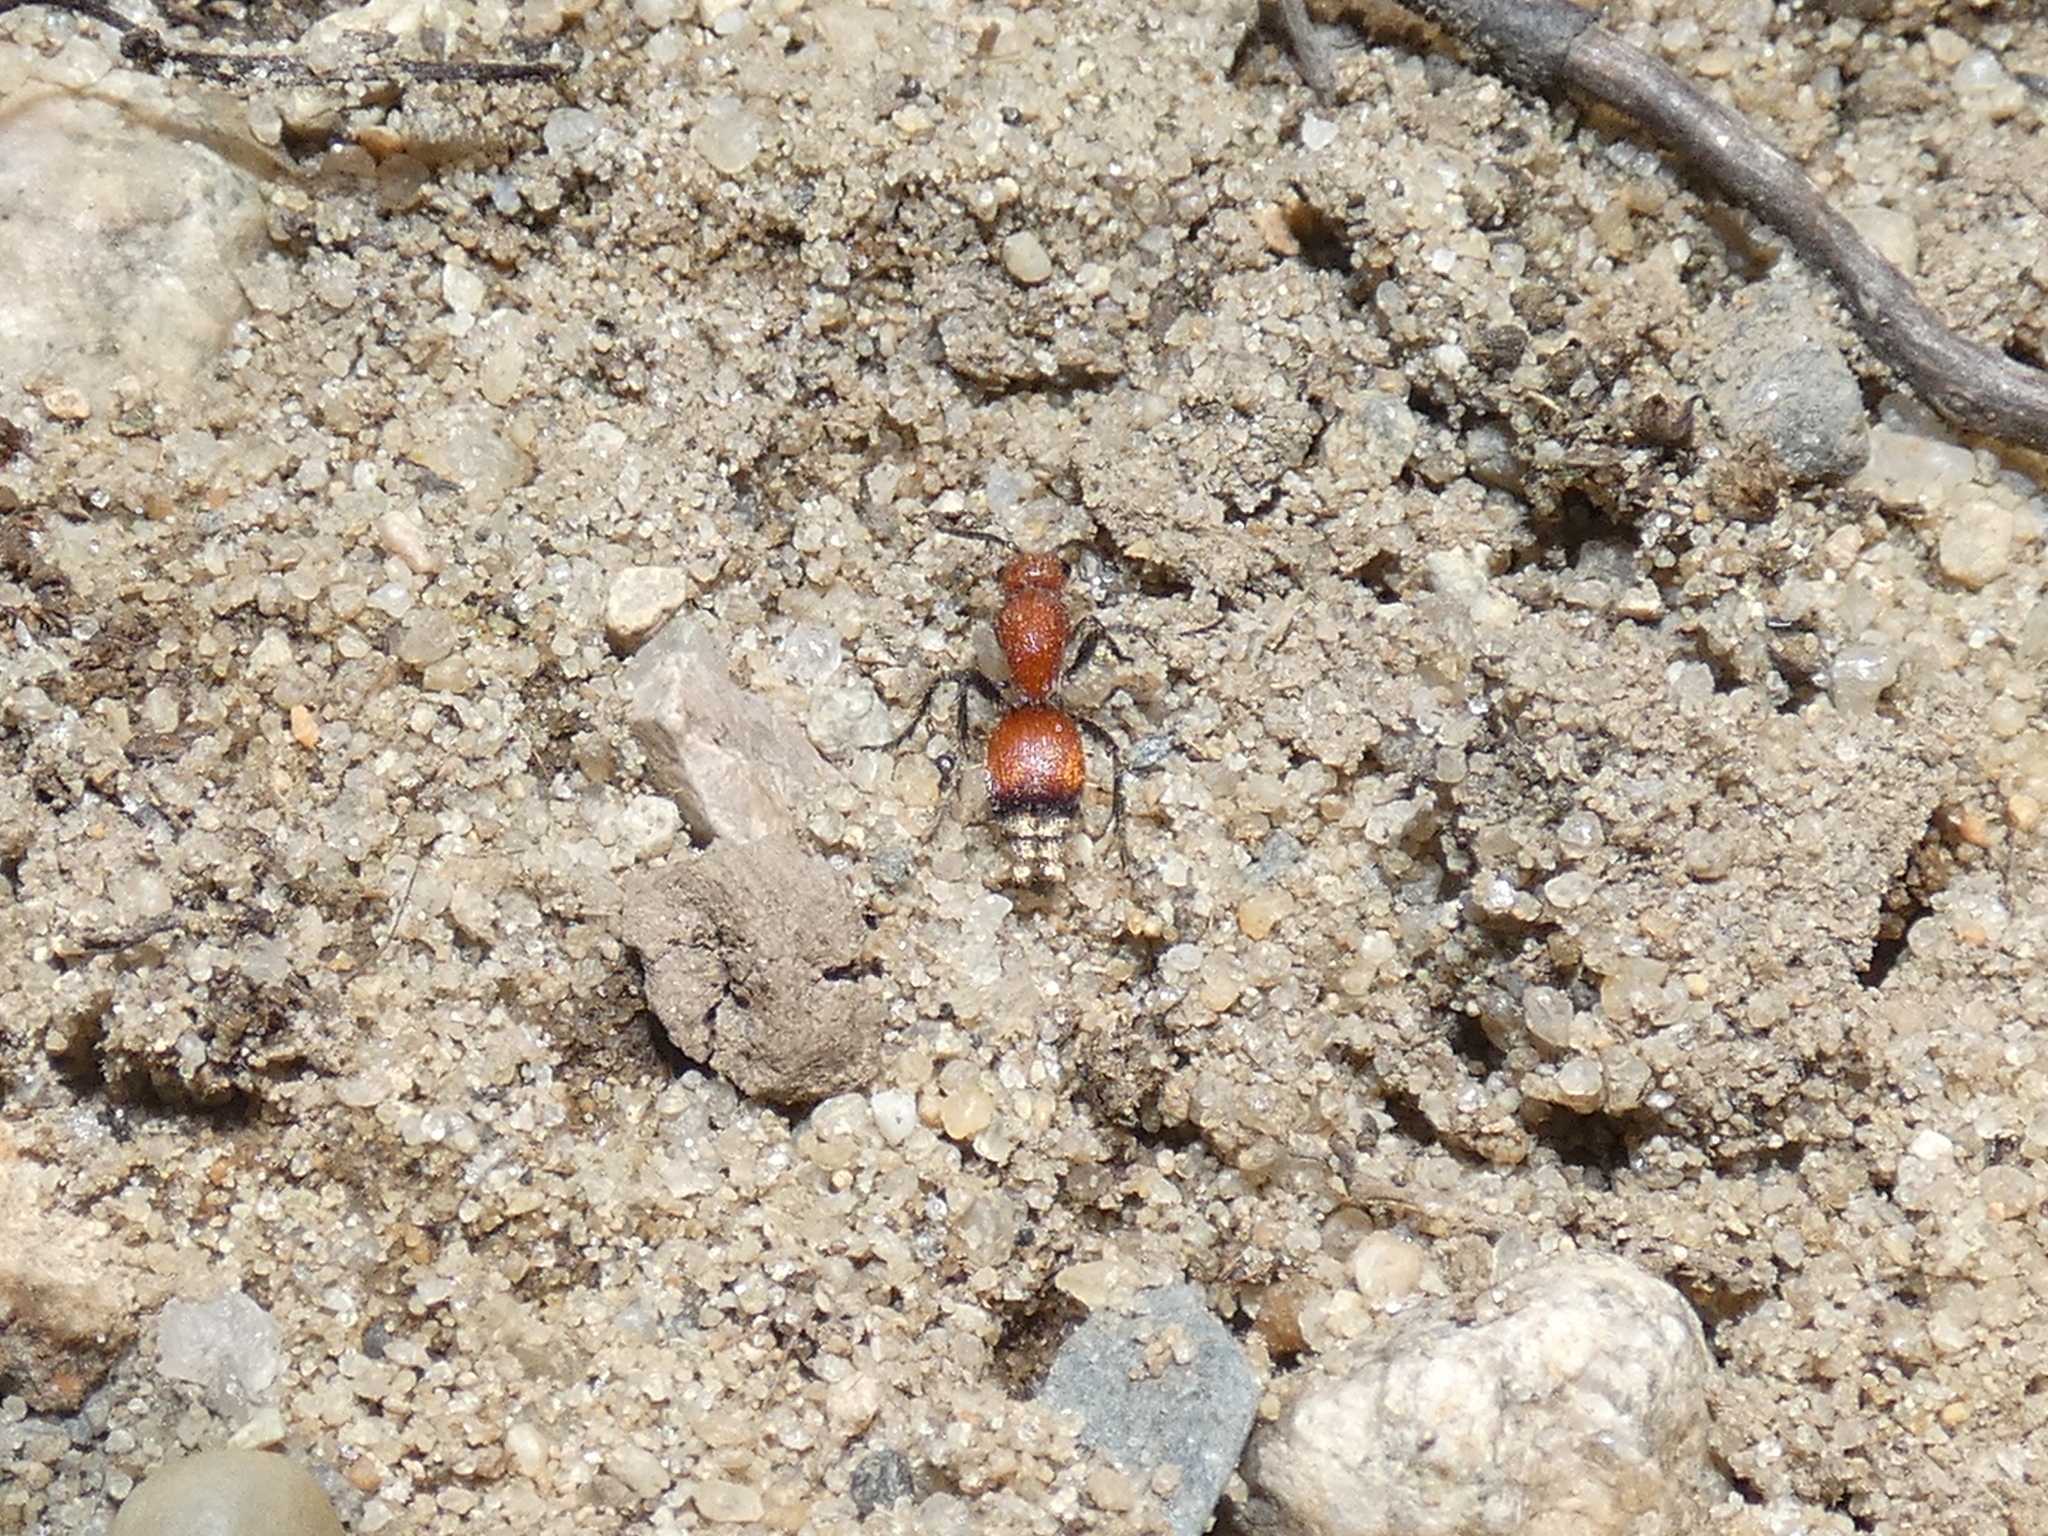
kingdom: Animalia
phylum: Arthropoda
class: Insecta
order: Hymenoptera
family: Mutillidae
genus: Dasymutilla
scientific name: Dasymutilla
